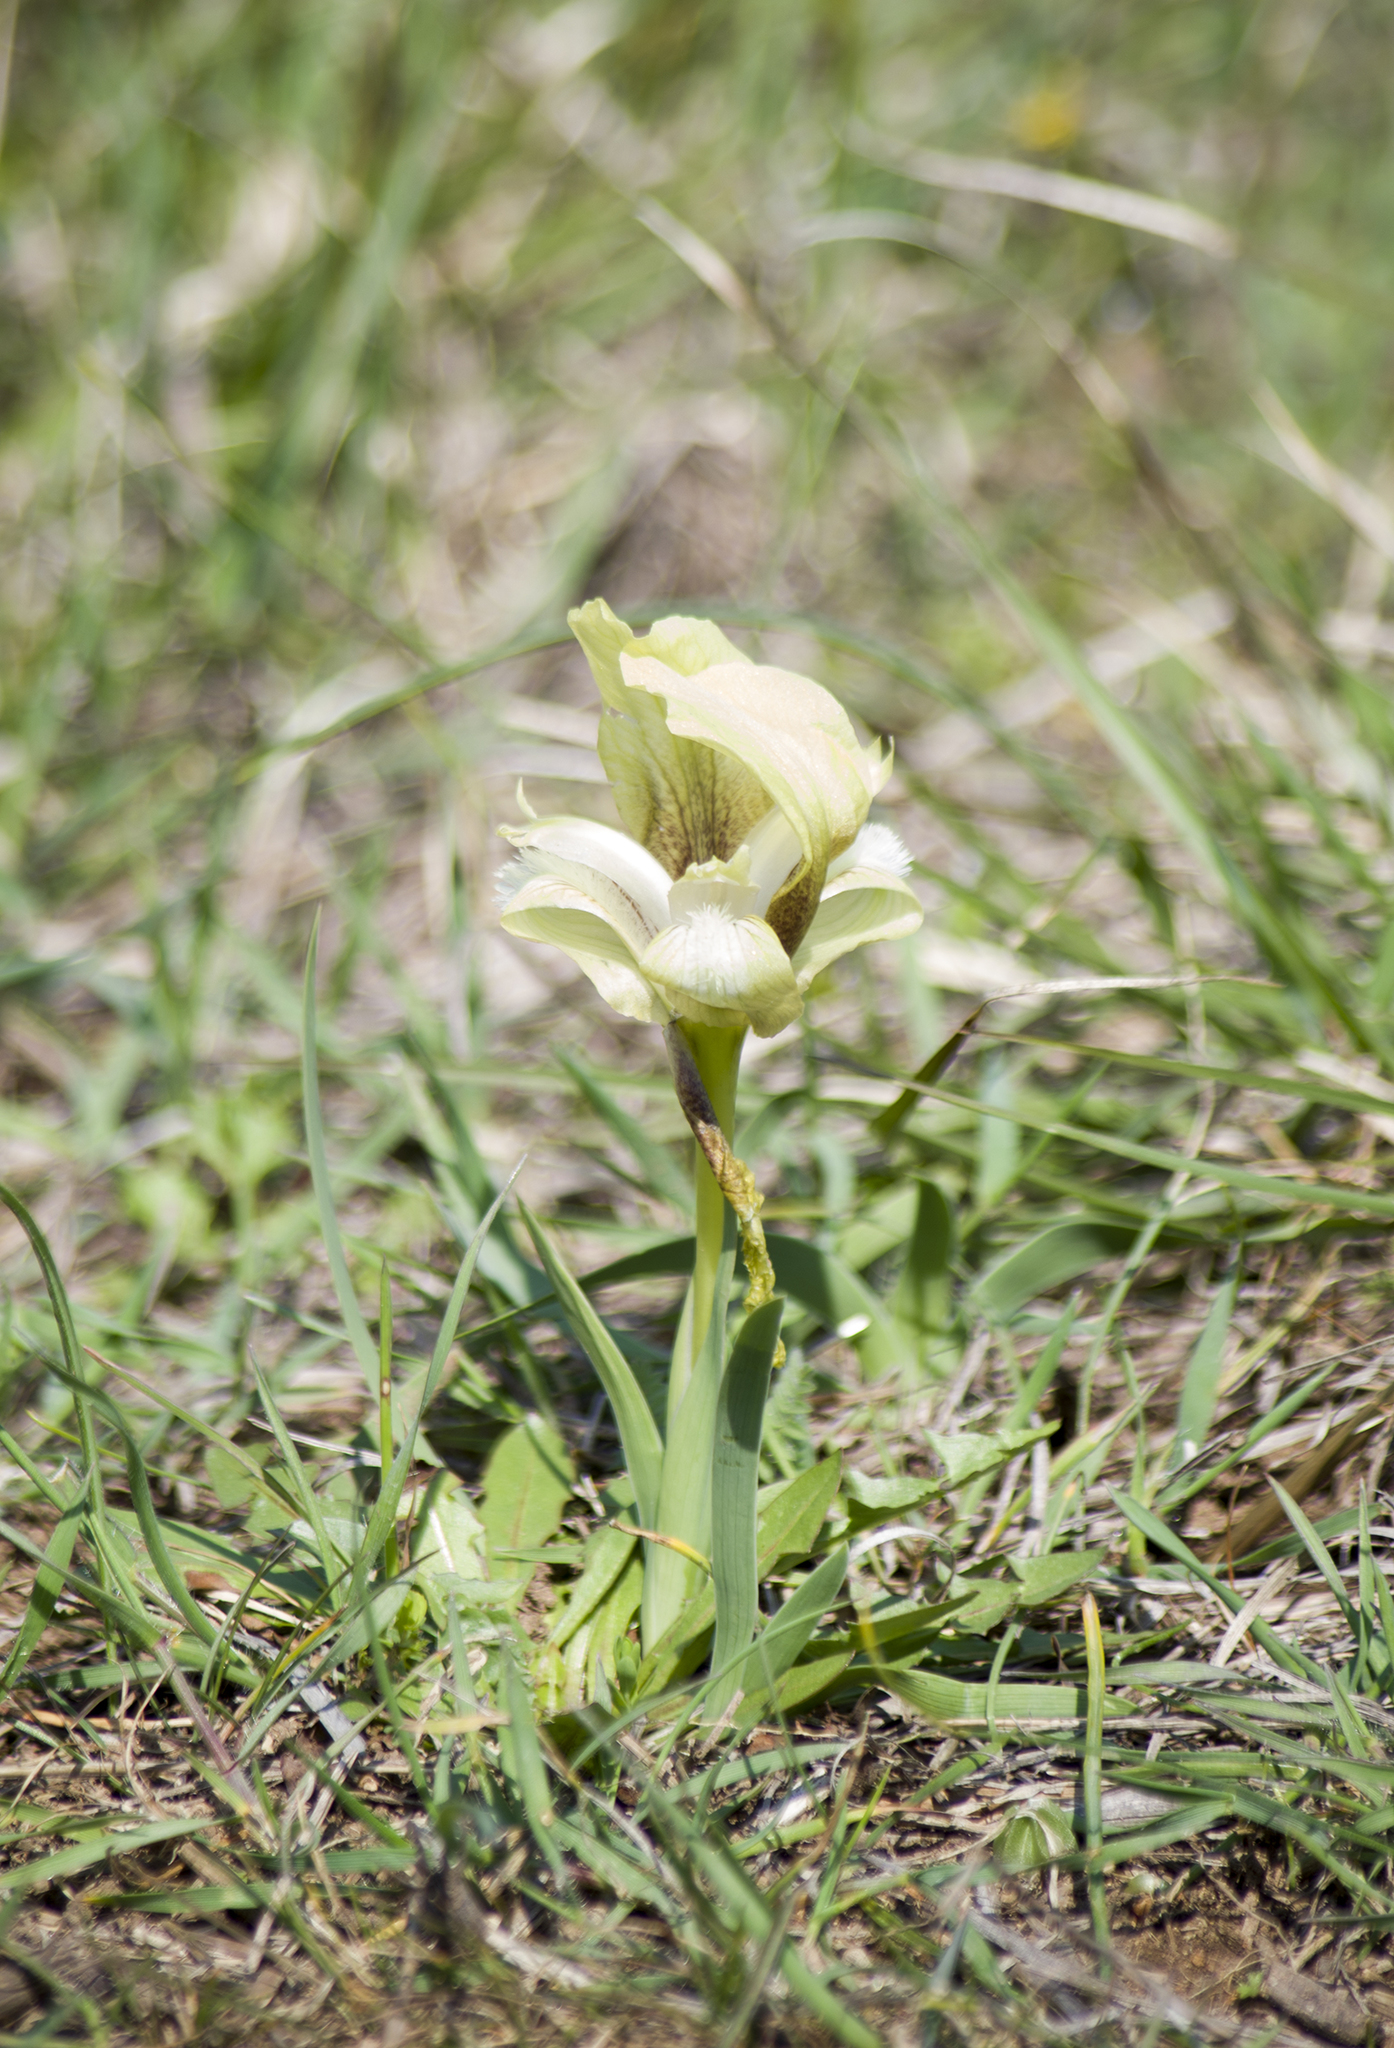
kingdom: Plantae
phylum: Tracheophyta
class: Liliopsida
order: Asparagales
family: Iridaceae
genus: Iris
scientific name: Iris suaveolens
